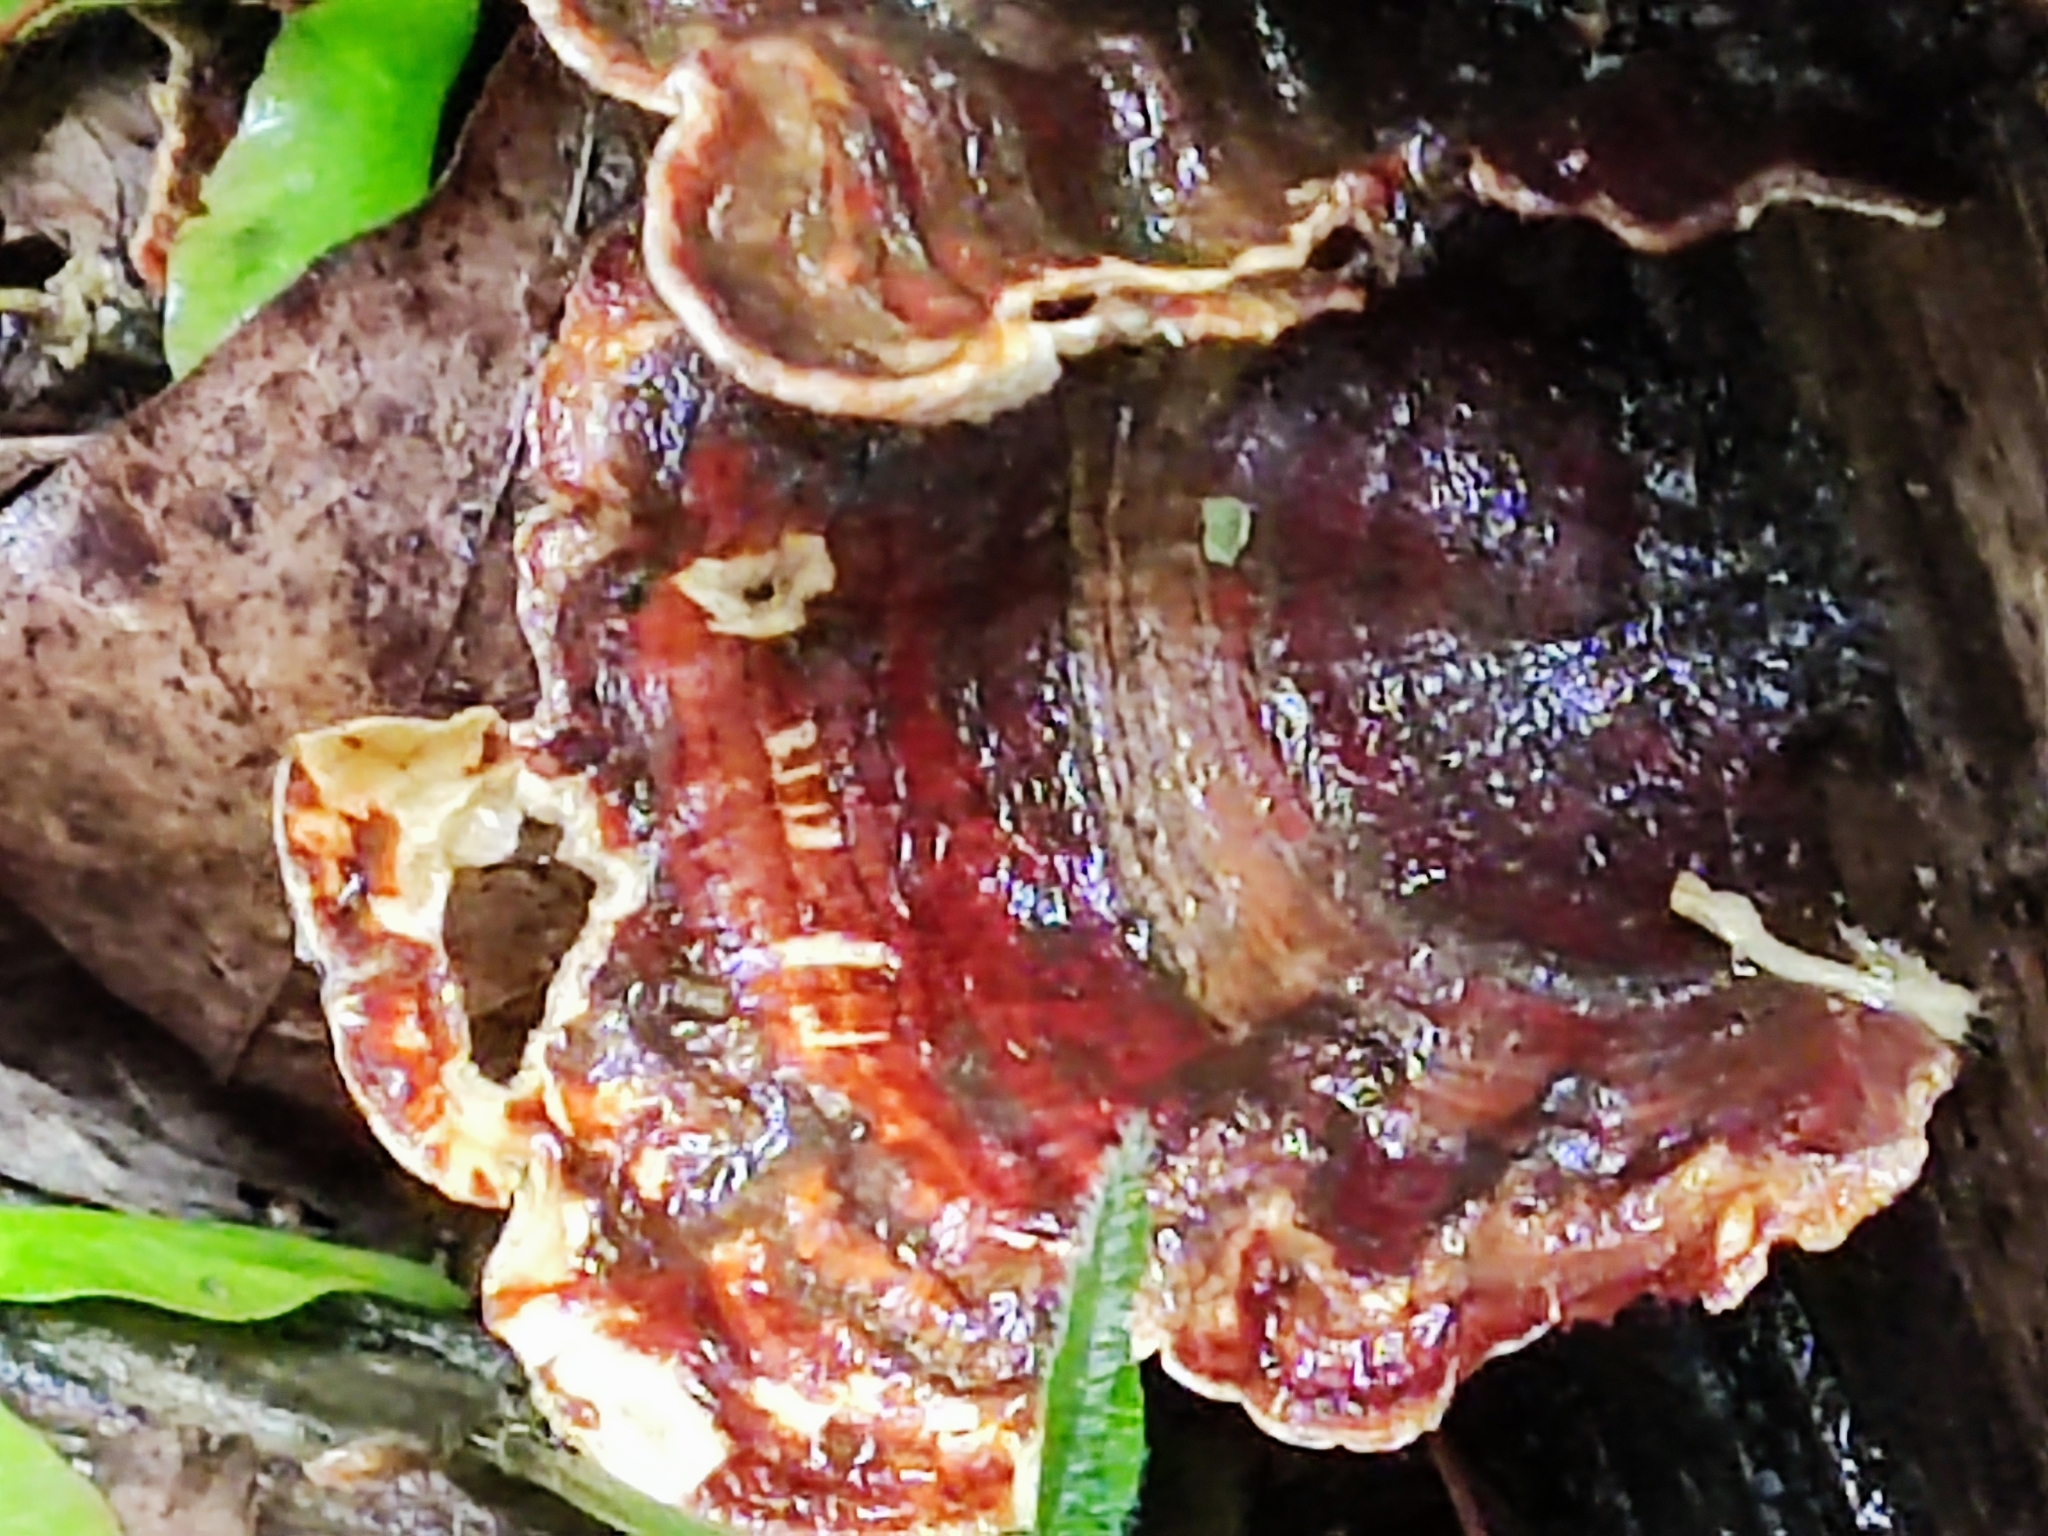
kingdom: Fungi
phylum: Basidiomycota
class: Agaricomycetes
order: Russulales
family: Stereaceae
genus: Stereum
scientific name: Stereum hirsutum
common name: Hairy curtain crust
